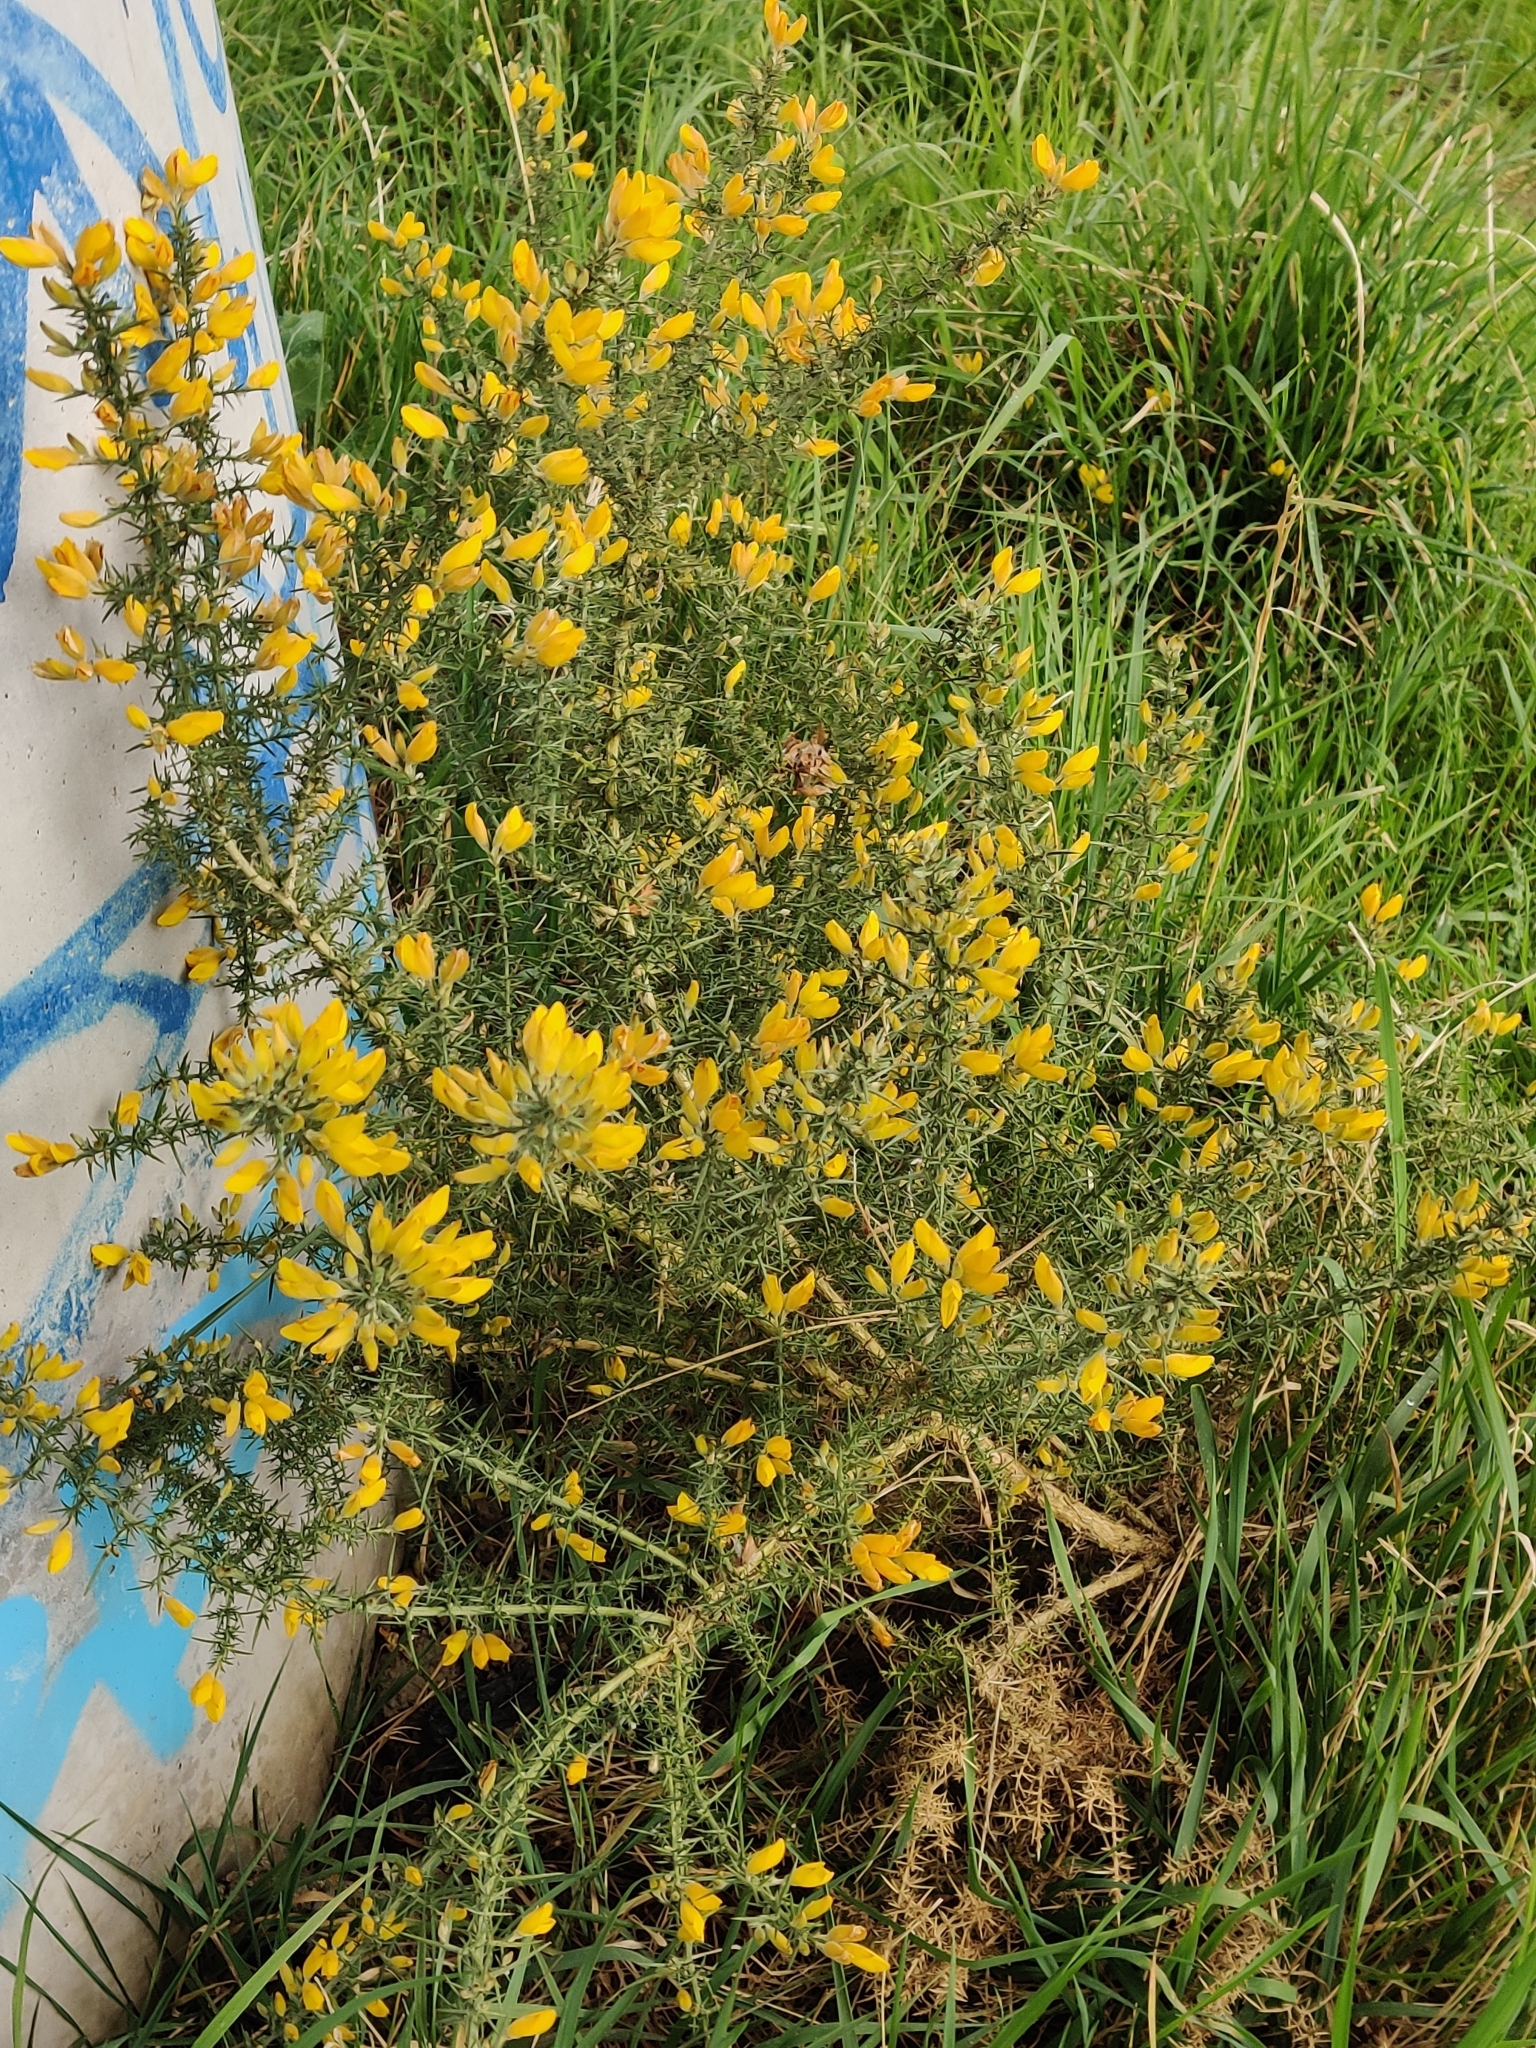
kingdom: Plantae
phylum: Tracheophyta
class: Magnoliopsida
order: Fabales
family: Fabaceae
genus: Ulex
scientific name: Ulex europaeus
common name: Common gorse
